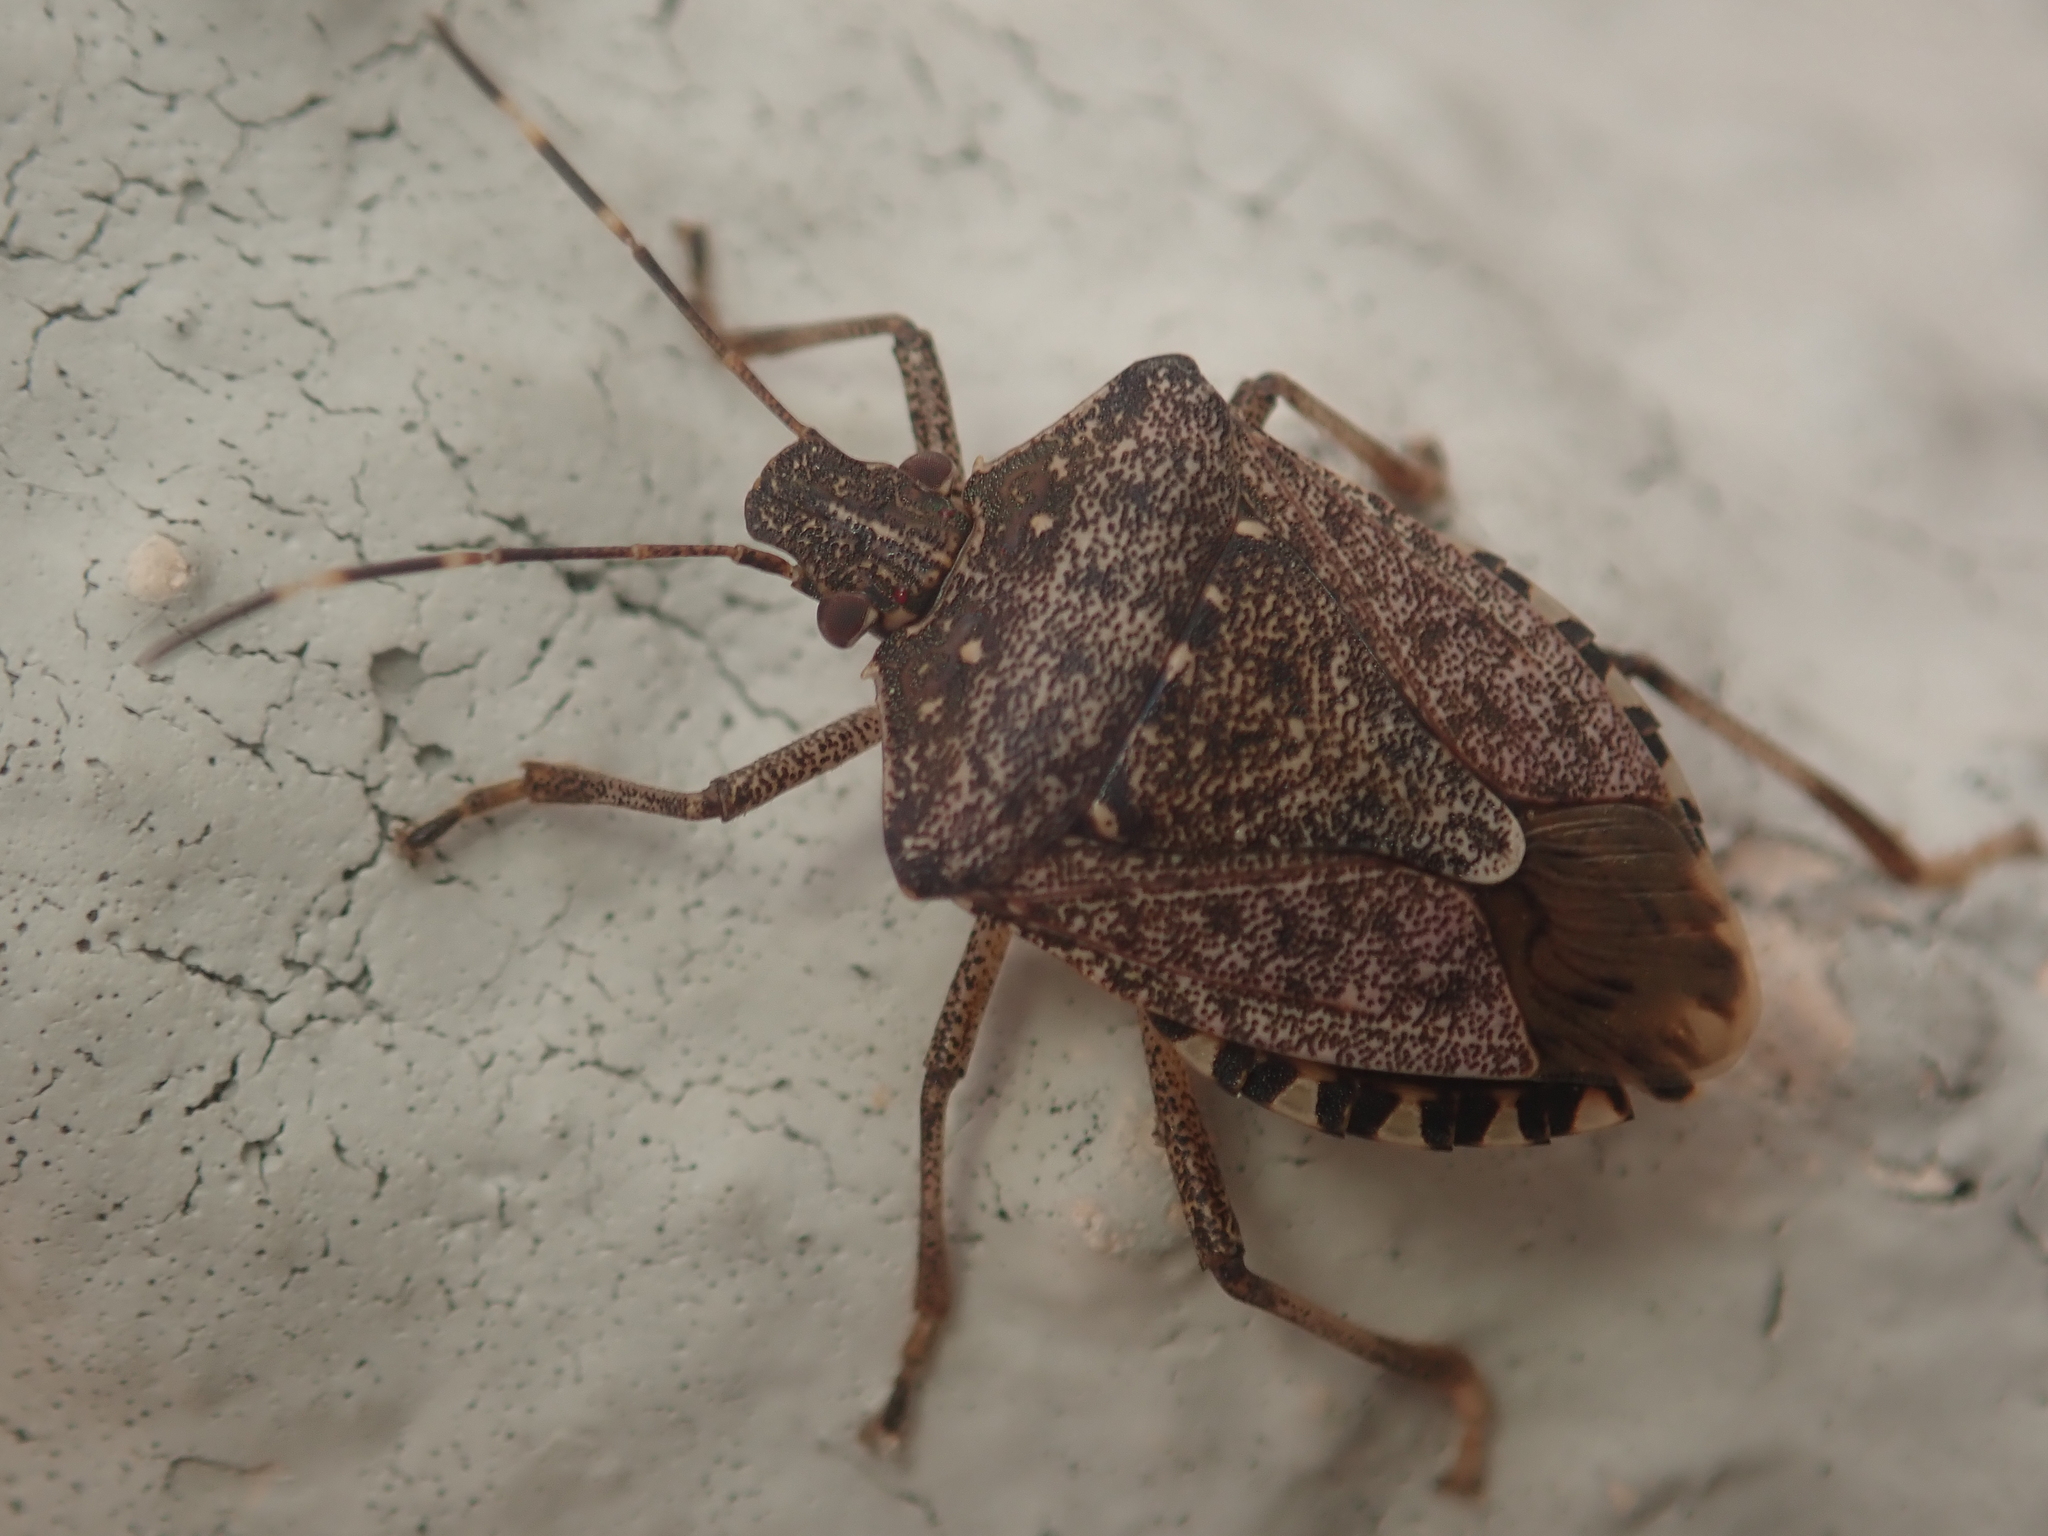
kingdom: Animalia
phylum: Arthropoda
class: Insecta
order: Hemiptera
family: Pentatomidae
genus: Halyomorpha
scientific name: Halyomorpha halys
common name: Brown marmorated stink bug
